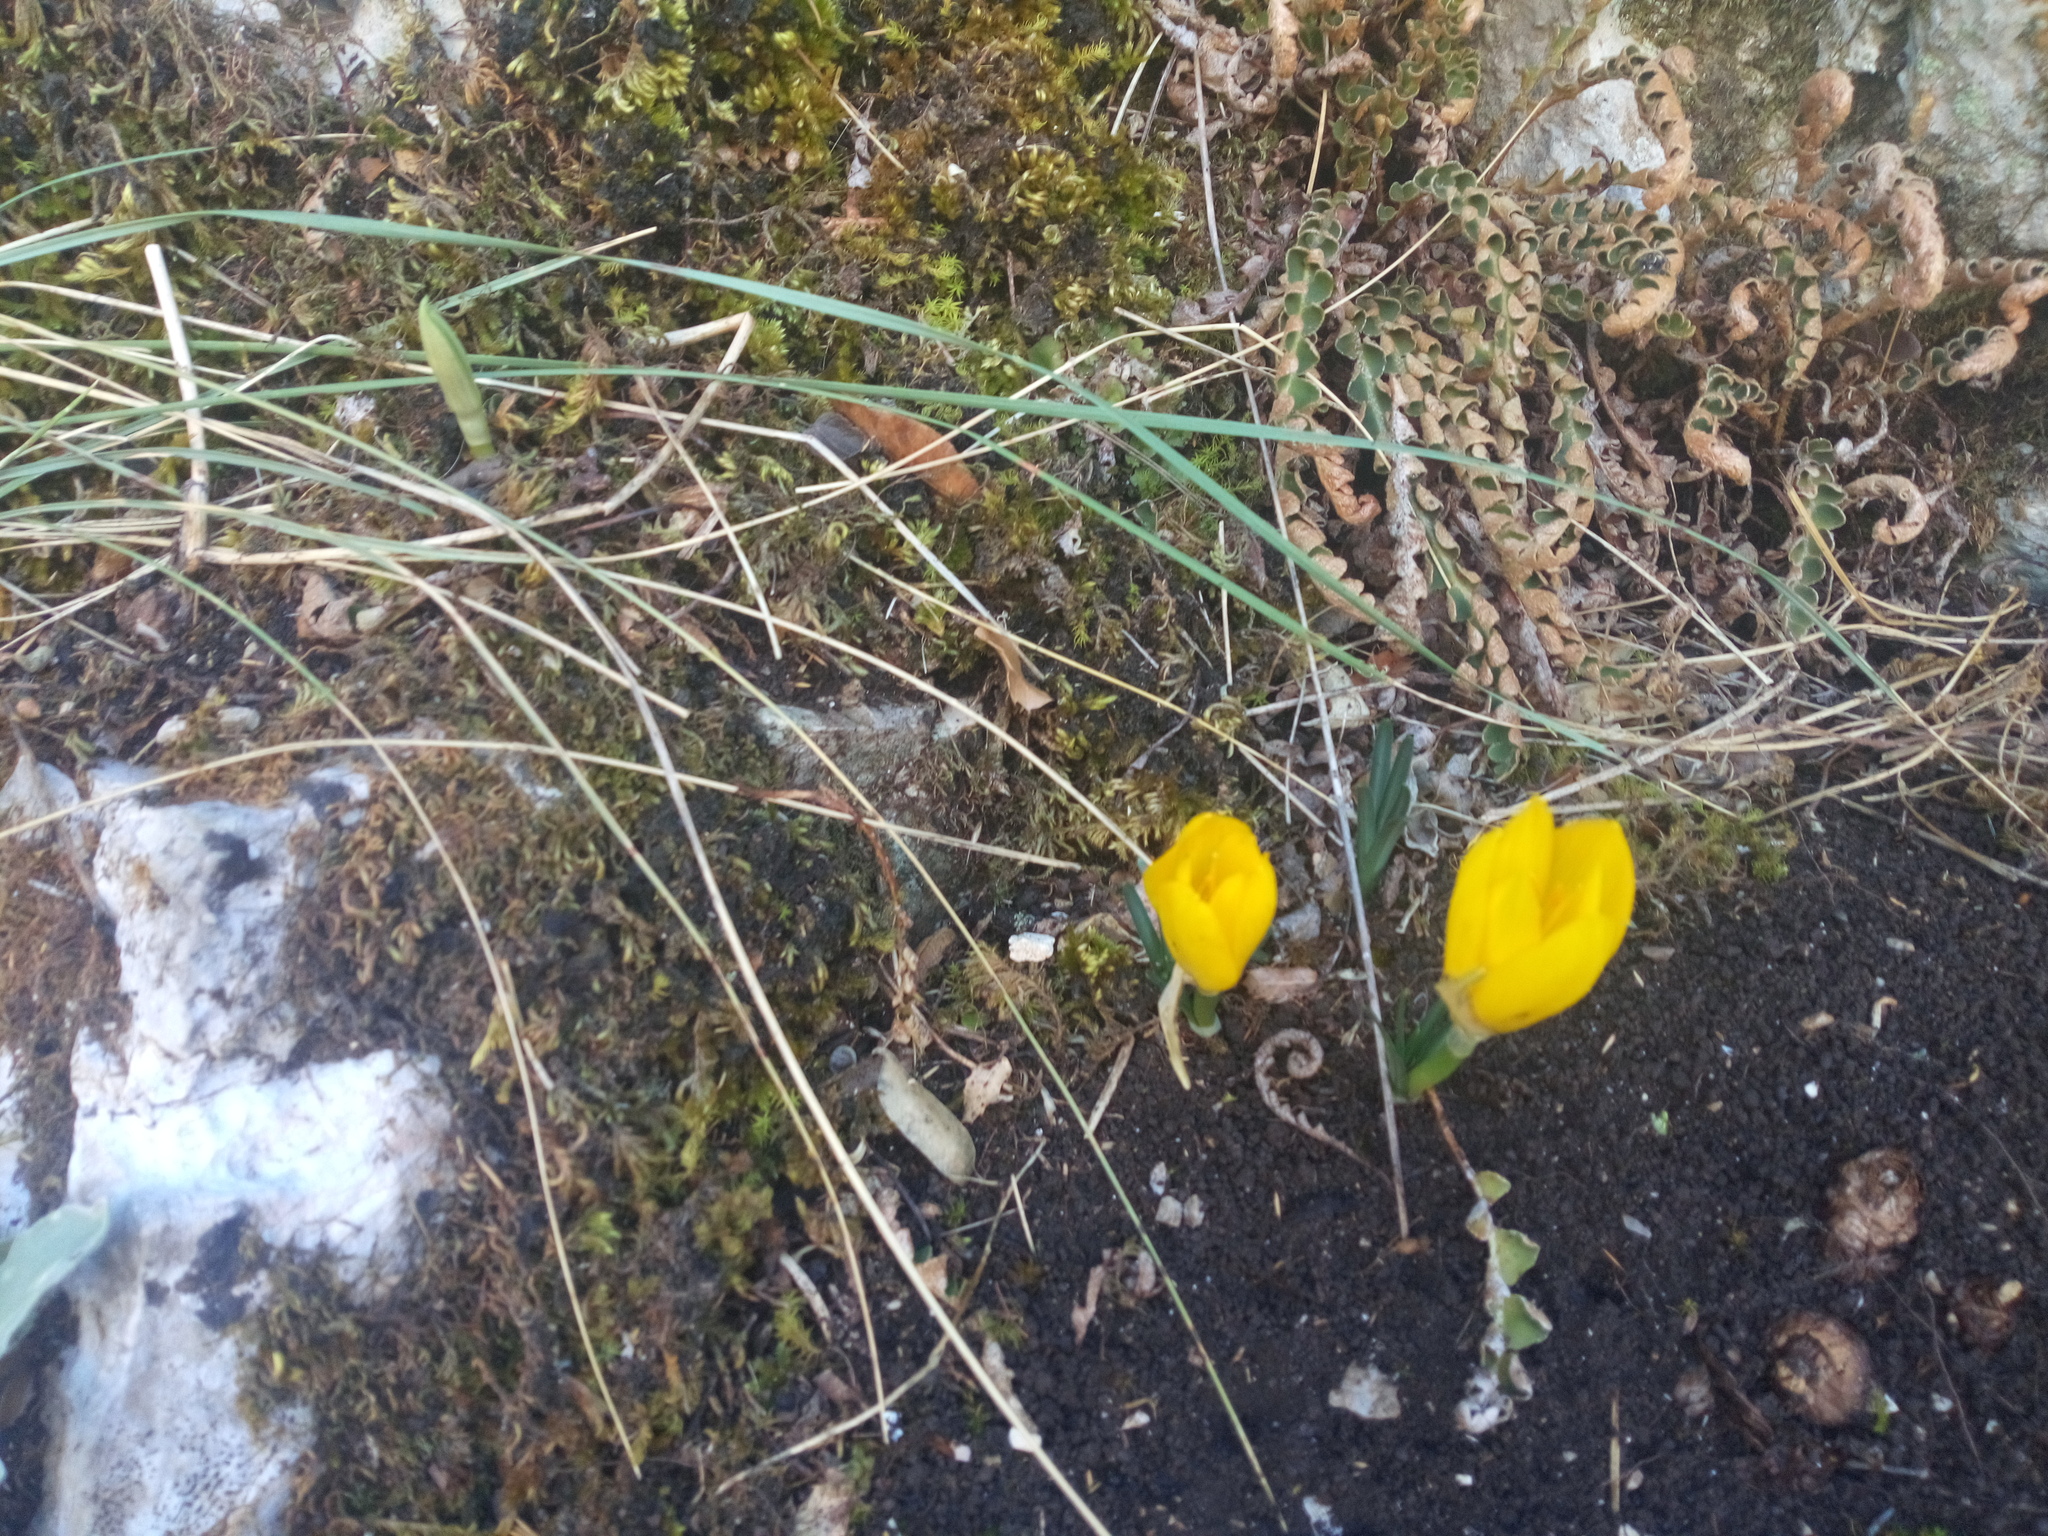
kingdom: Plantae
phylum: Tracheophyta
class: Liliopsida
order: Asparagales
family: Amaryllidaceae
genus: Sternbergia
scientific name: Sternbergia lutea
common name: Winter daffodil
